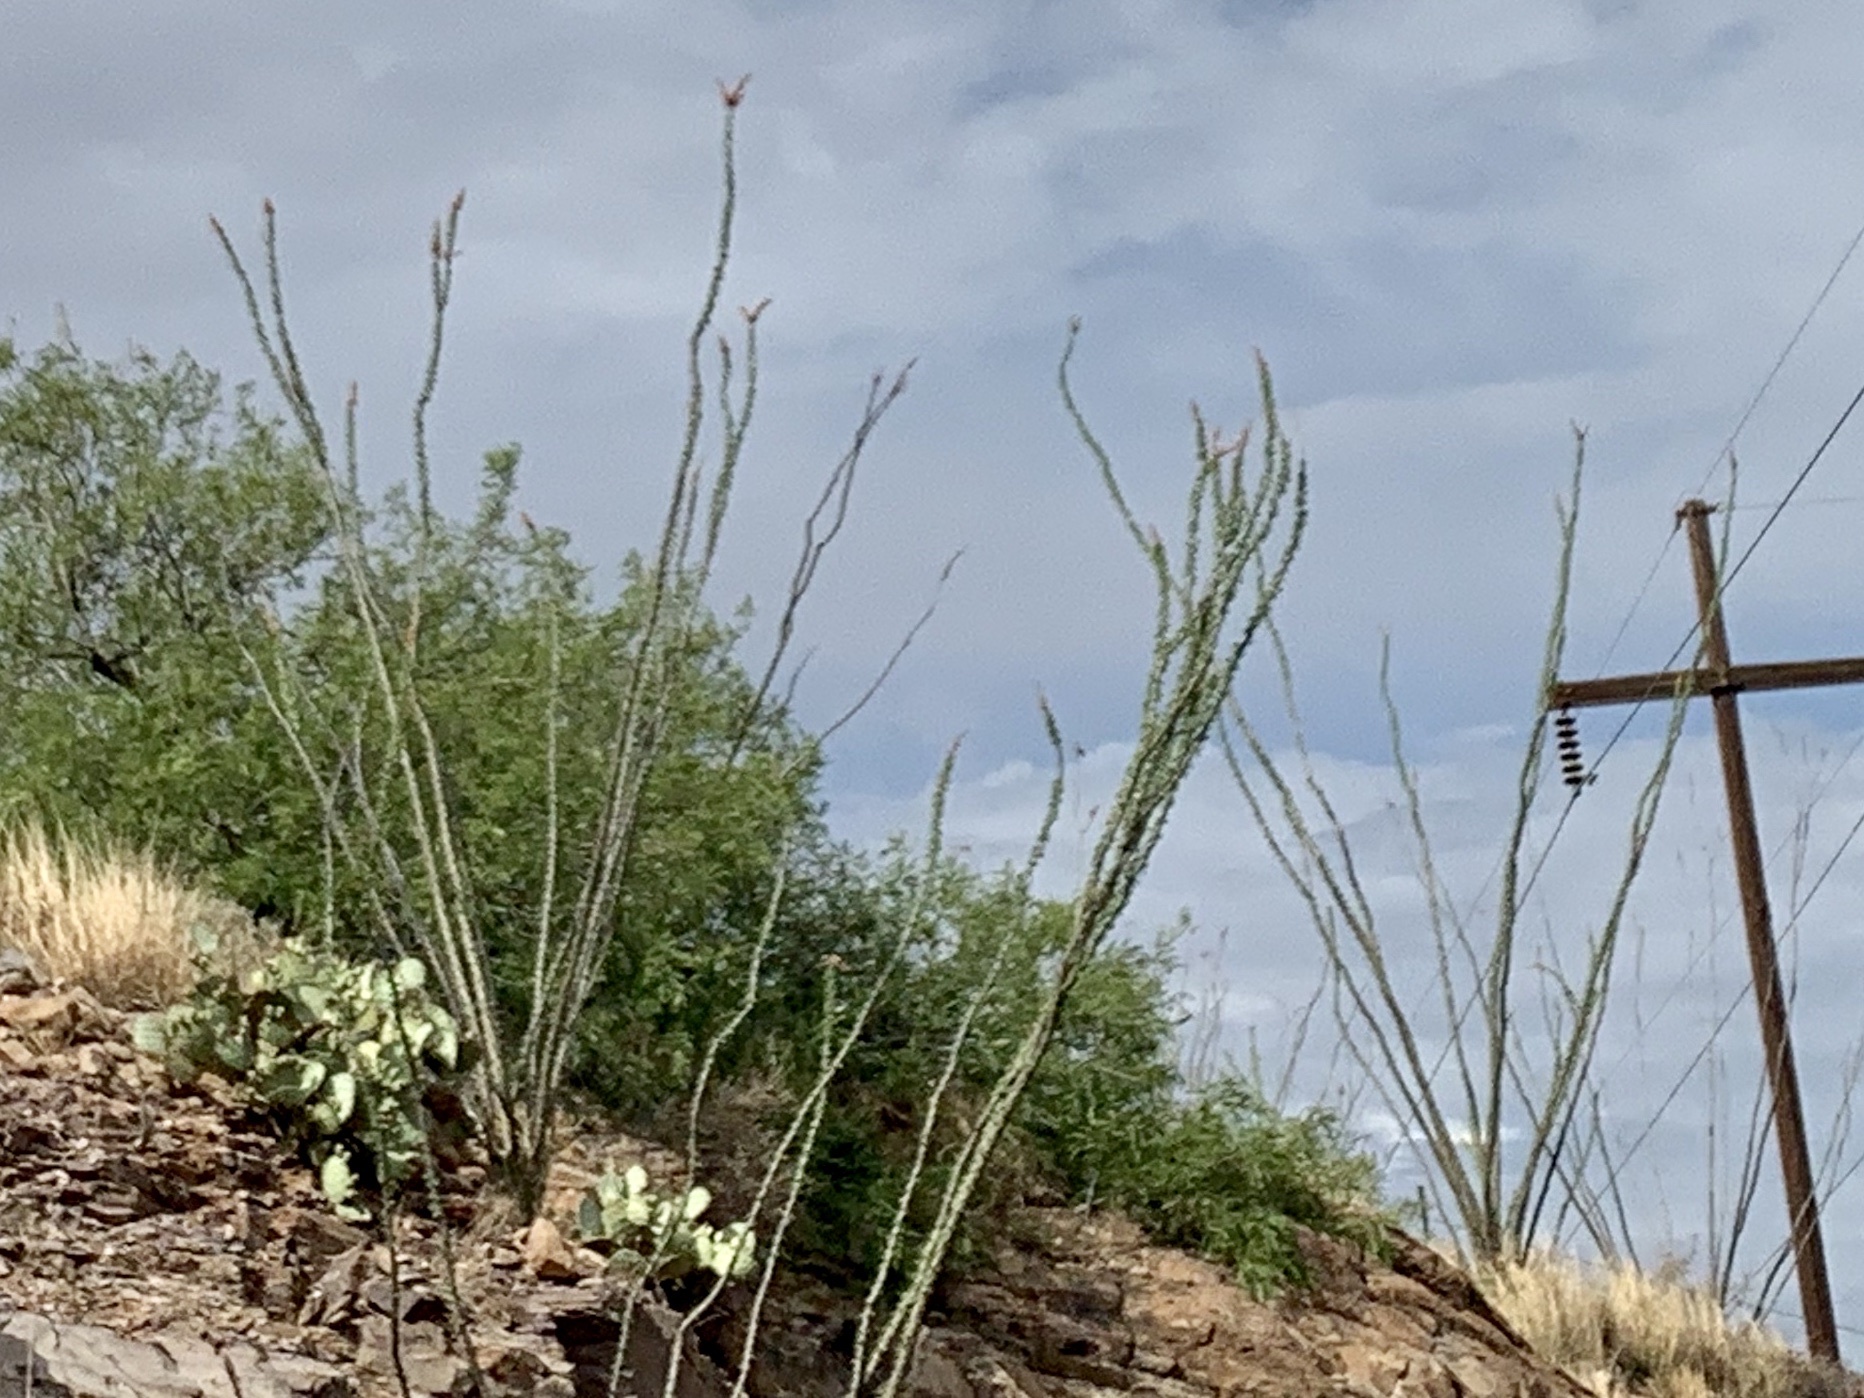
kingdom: Plantae
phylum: Tracheophyta
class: Magnoliopsida
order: Ericales
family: Fouquieriaceae
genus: Fouquieria
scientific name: Fouquieria splendens
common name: Vine-cactus
